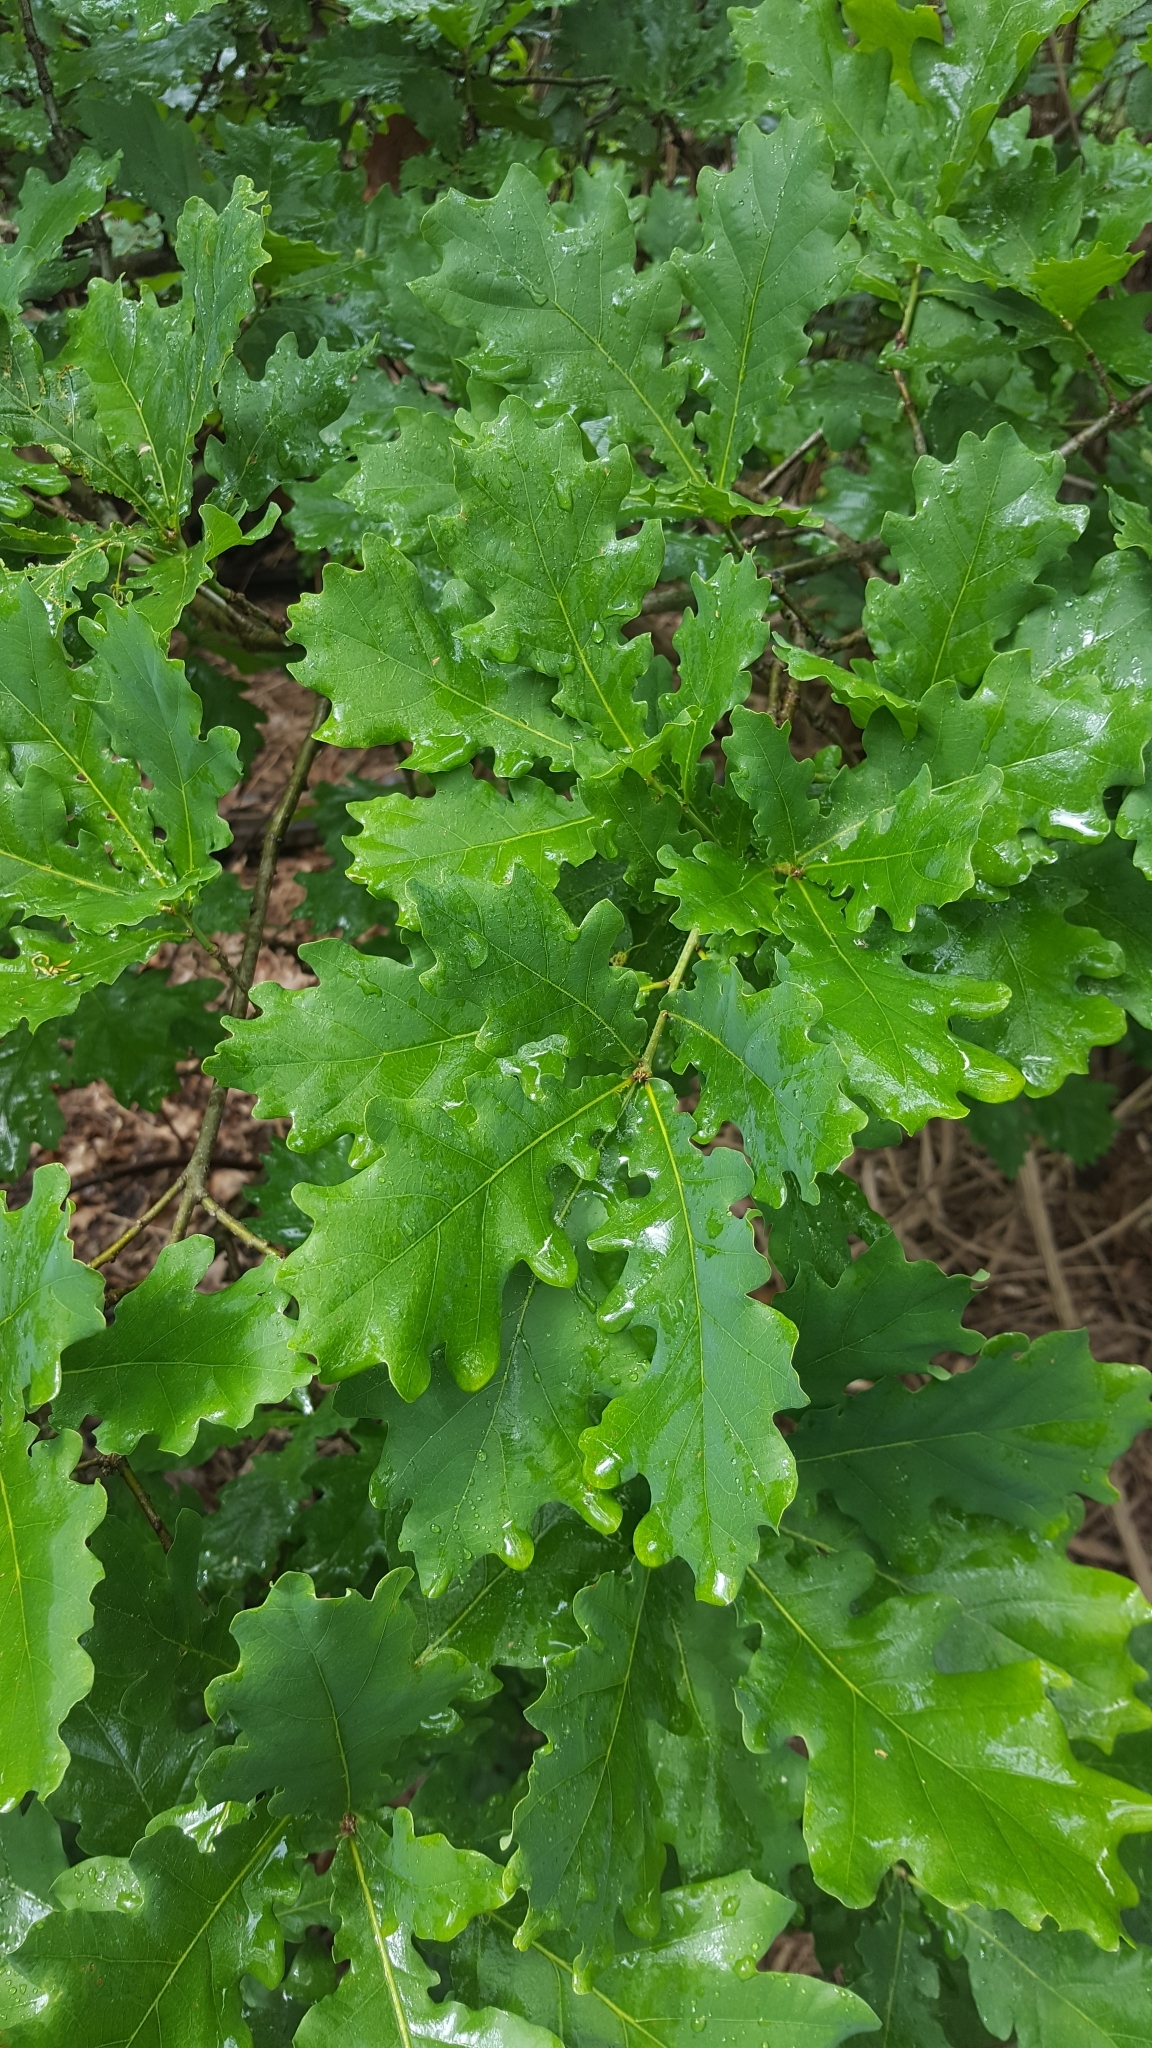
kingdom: Plantae
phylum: Tracheophyta
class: Magnoliopsida
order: Fagales
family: Fagaceae
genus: Quercus
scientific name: Quercus robur
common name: Pedunculate oak
